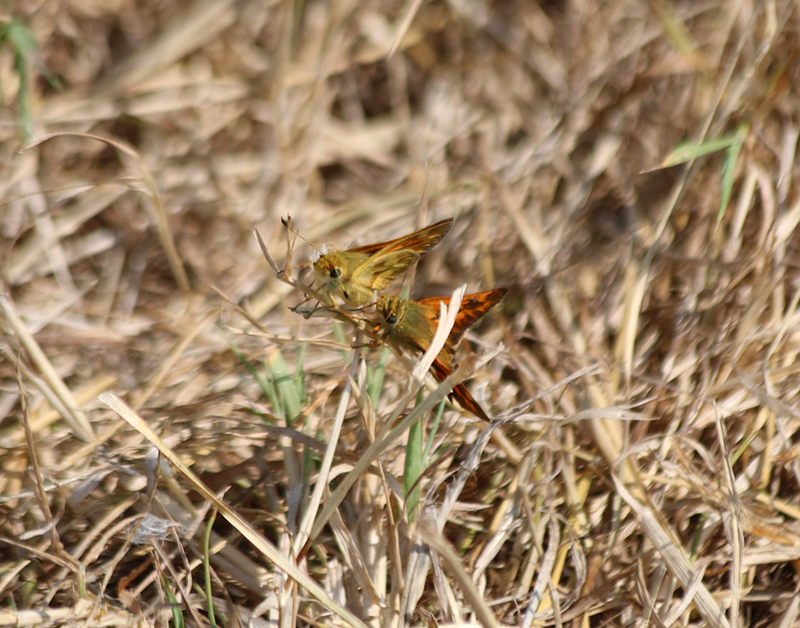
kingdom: Animalia
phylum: Arthropoda
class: Insecta
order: Lepidoptera
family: Hesperiidae
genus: Ochlodes
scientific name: Ochlodes sylvanoides
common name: Woodland skipper
